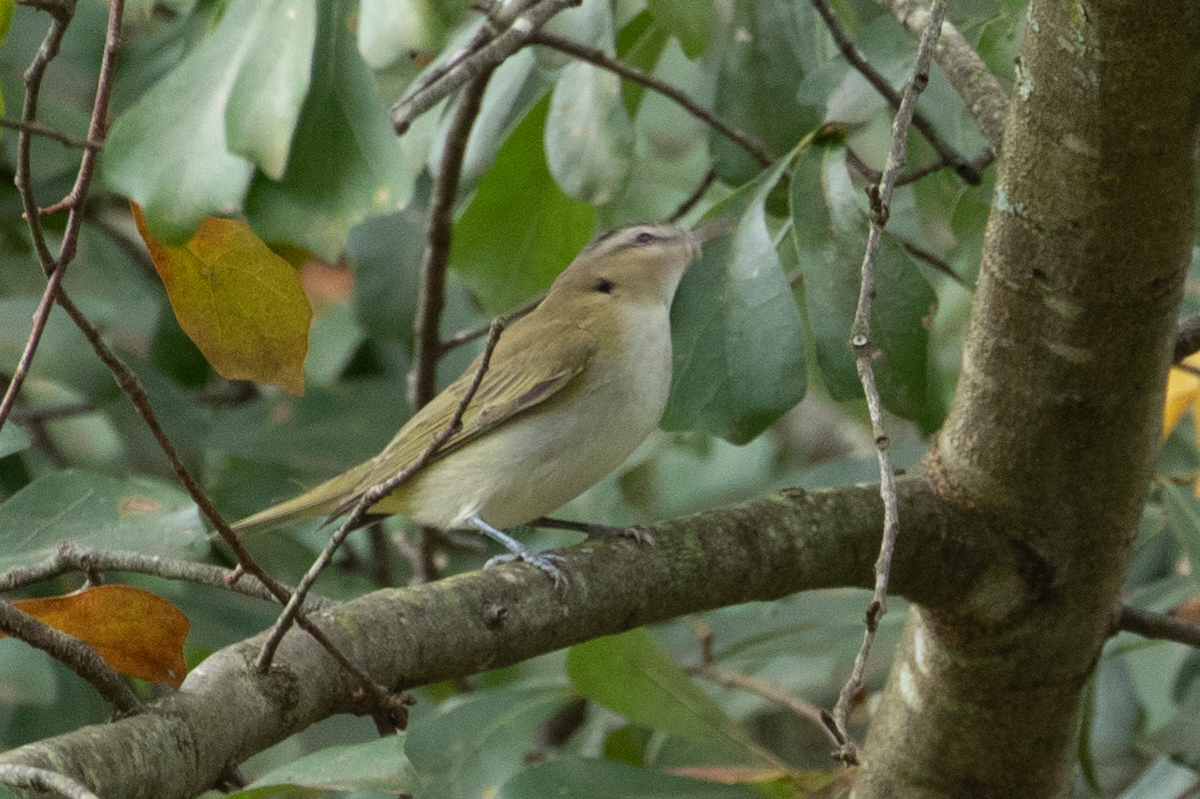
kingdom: Animalia
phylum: Chordata
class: Aves
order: Passeriformes
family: Vireonidae
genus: Vireo
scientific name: Vireo olivaceus
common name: Red-eyed vireo
